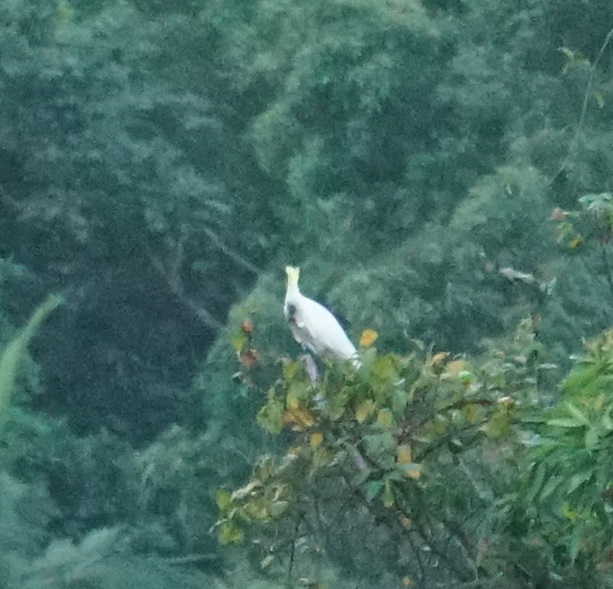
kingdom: Animalia
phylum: Chordata
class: Aves
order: Psittaciformes
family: Psittacidae
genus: Cacatua
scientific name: Cacatua galerita
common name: Sulphur-crested cockatoo
